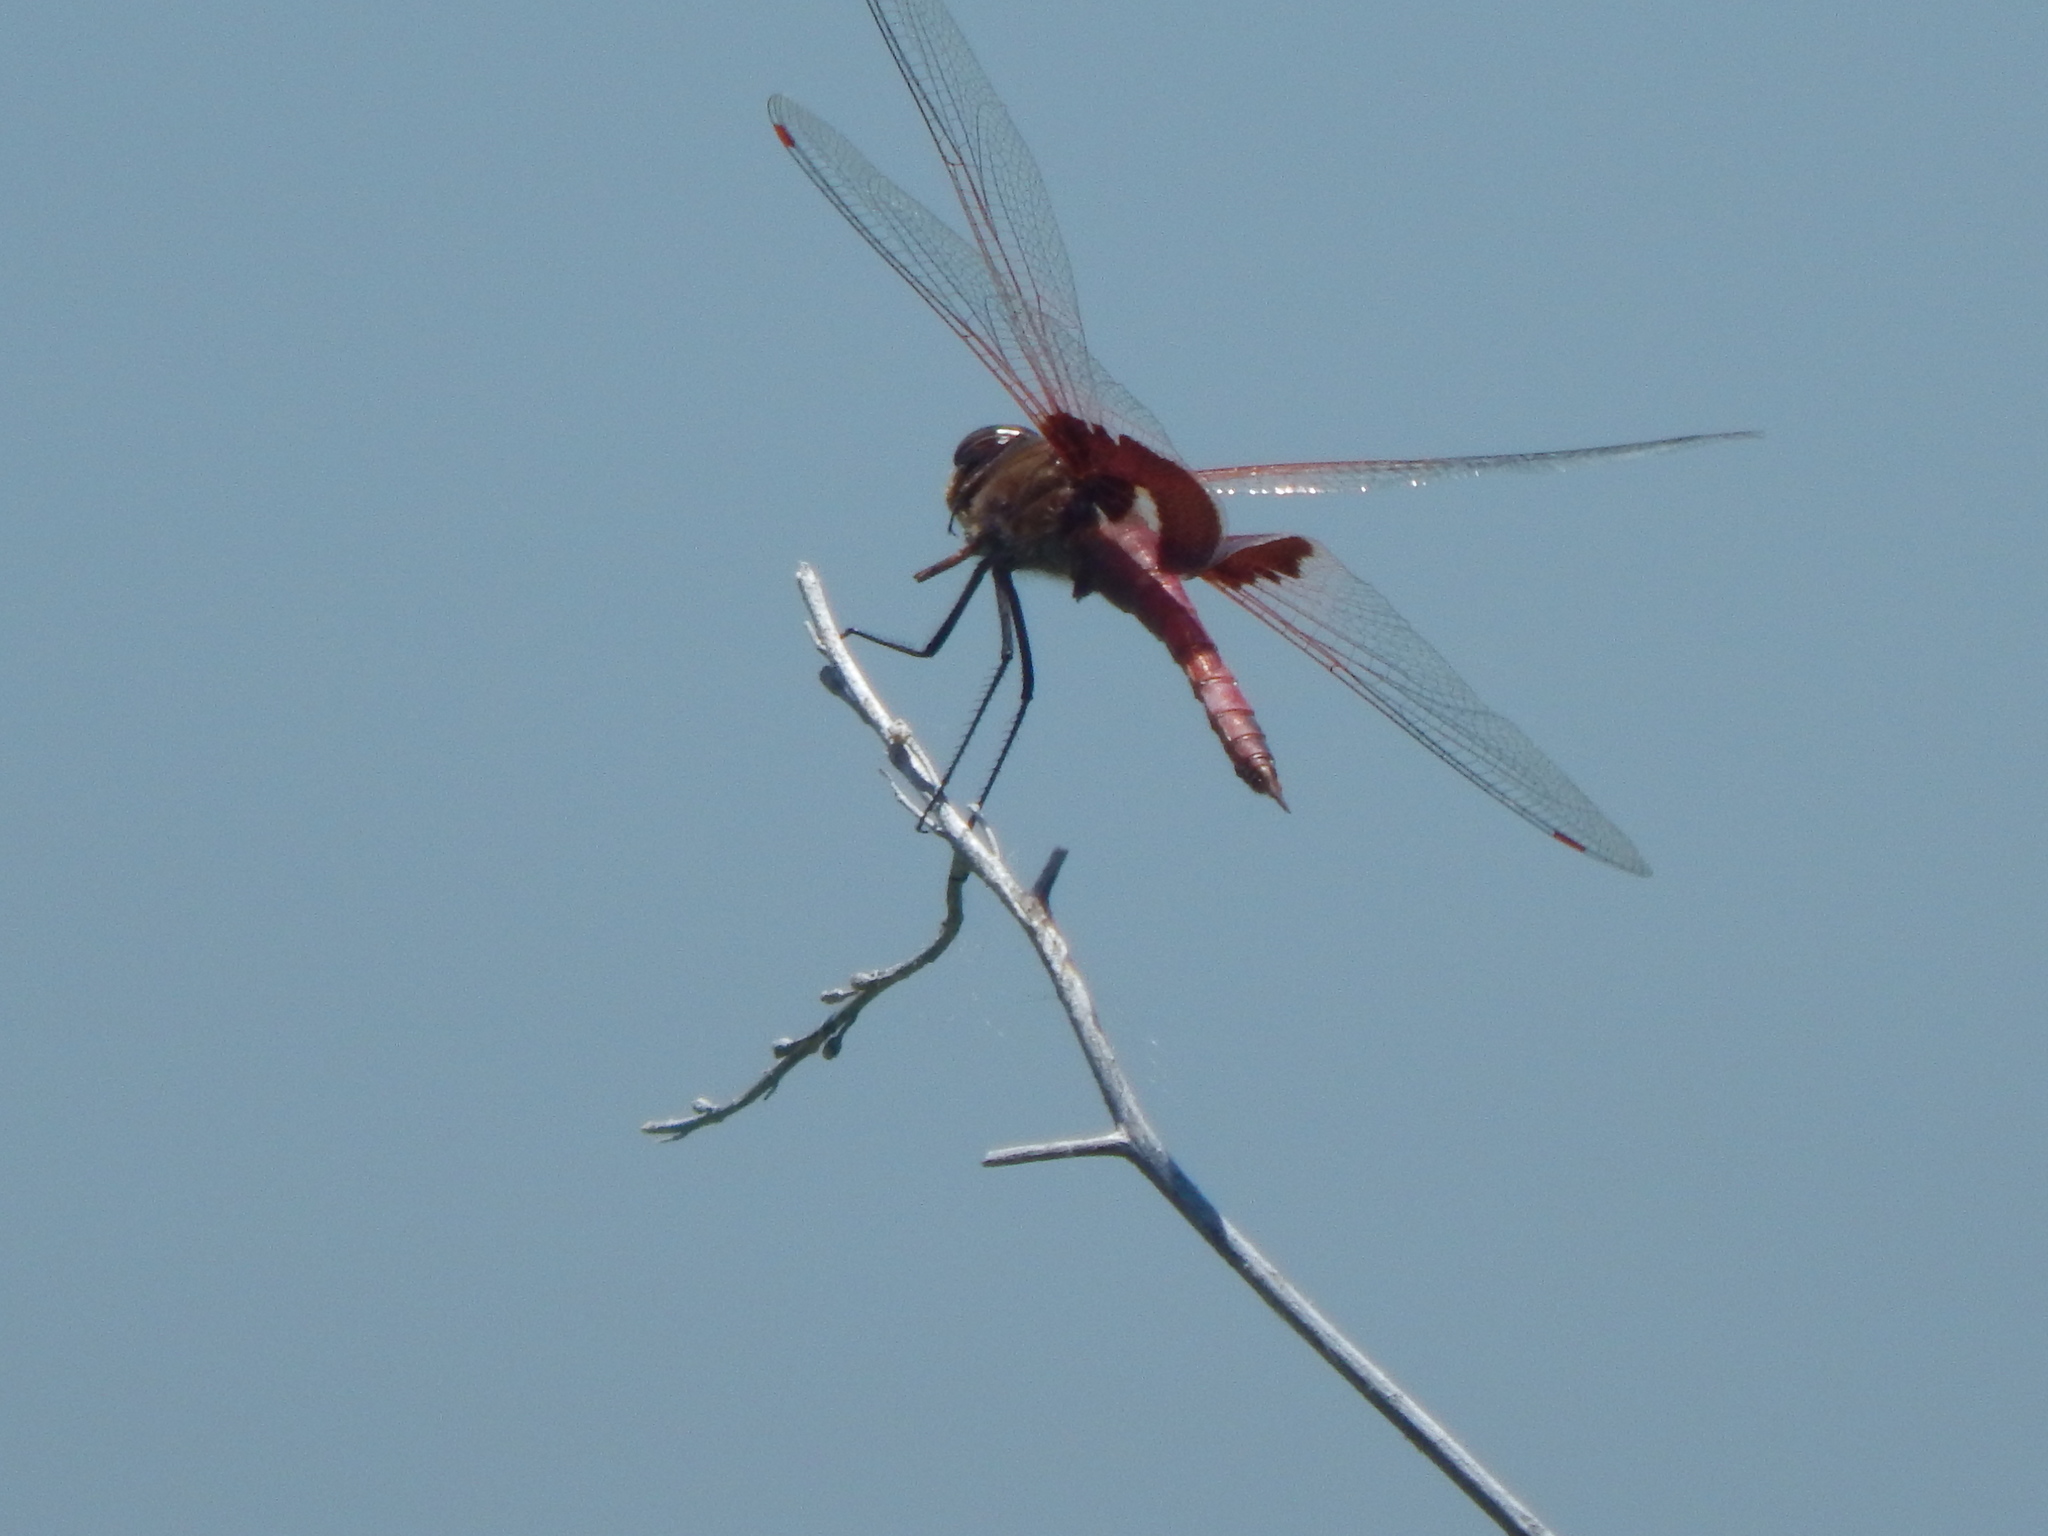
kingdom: Animalia
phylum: Arthropoda
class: Insecta
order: Odonata
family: Libellulidae
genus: Tramea
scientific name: Tramea onusta
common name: Red saddlebags
